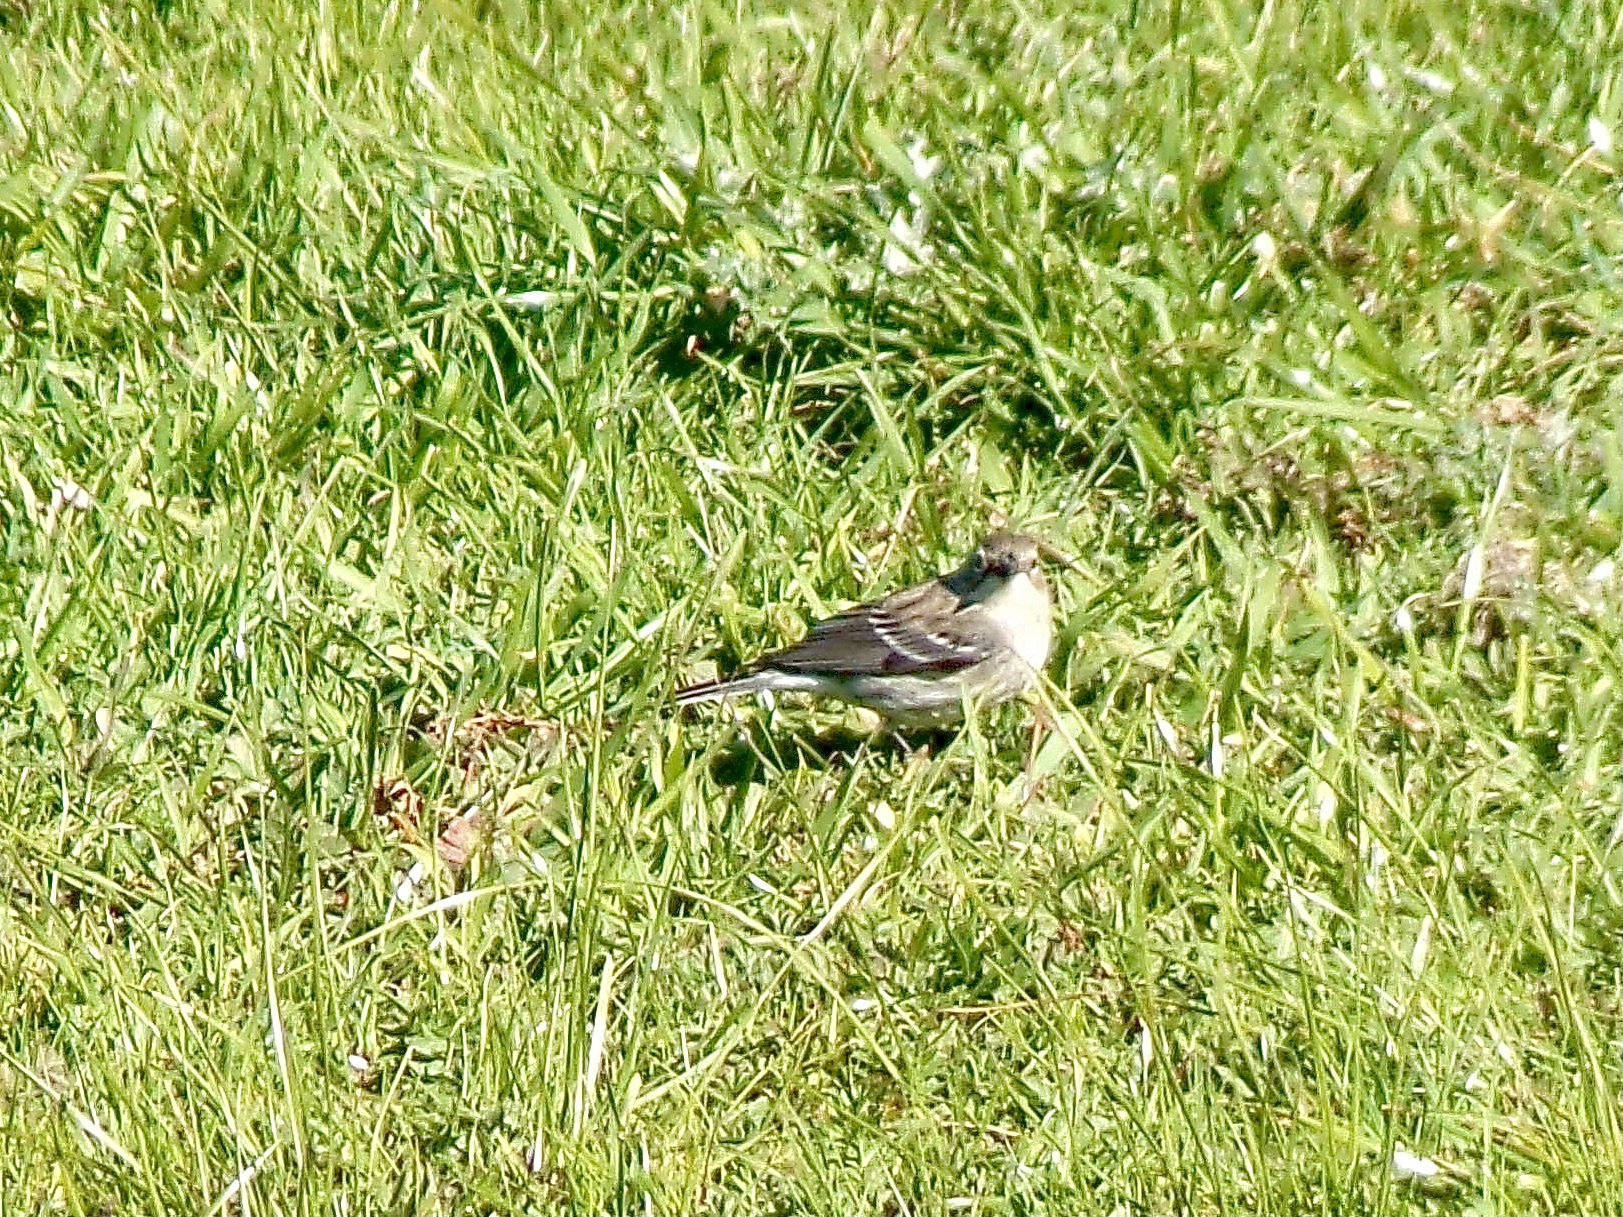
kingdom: Animalia
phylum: Chordata
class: Aves
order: Passeriformes
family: Parulidae
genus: Setophaga
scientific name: Setophaga coronata
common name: Myrtle warbler
